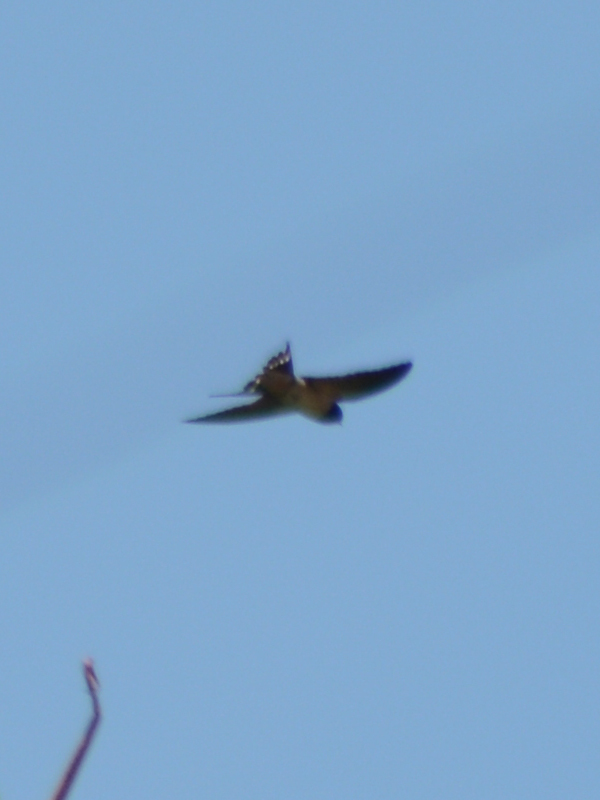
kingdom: Animalia
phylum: Chordata
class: Aves
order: Passeriformes
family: Hirundinidae
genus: Hirundo
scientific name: Hirundo rustica
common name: Barn swallow
